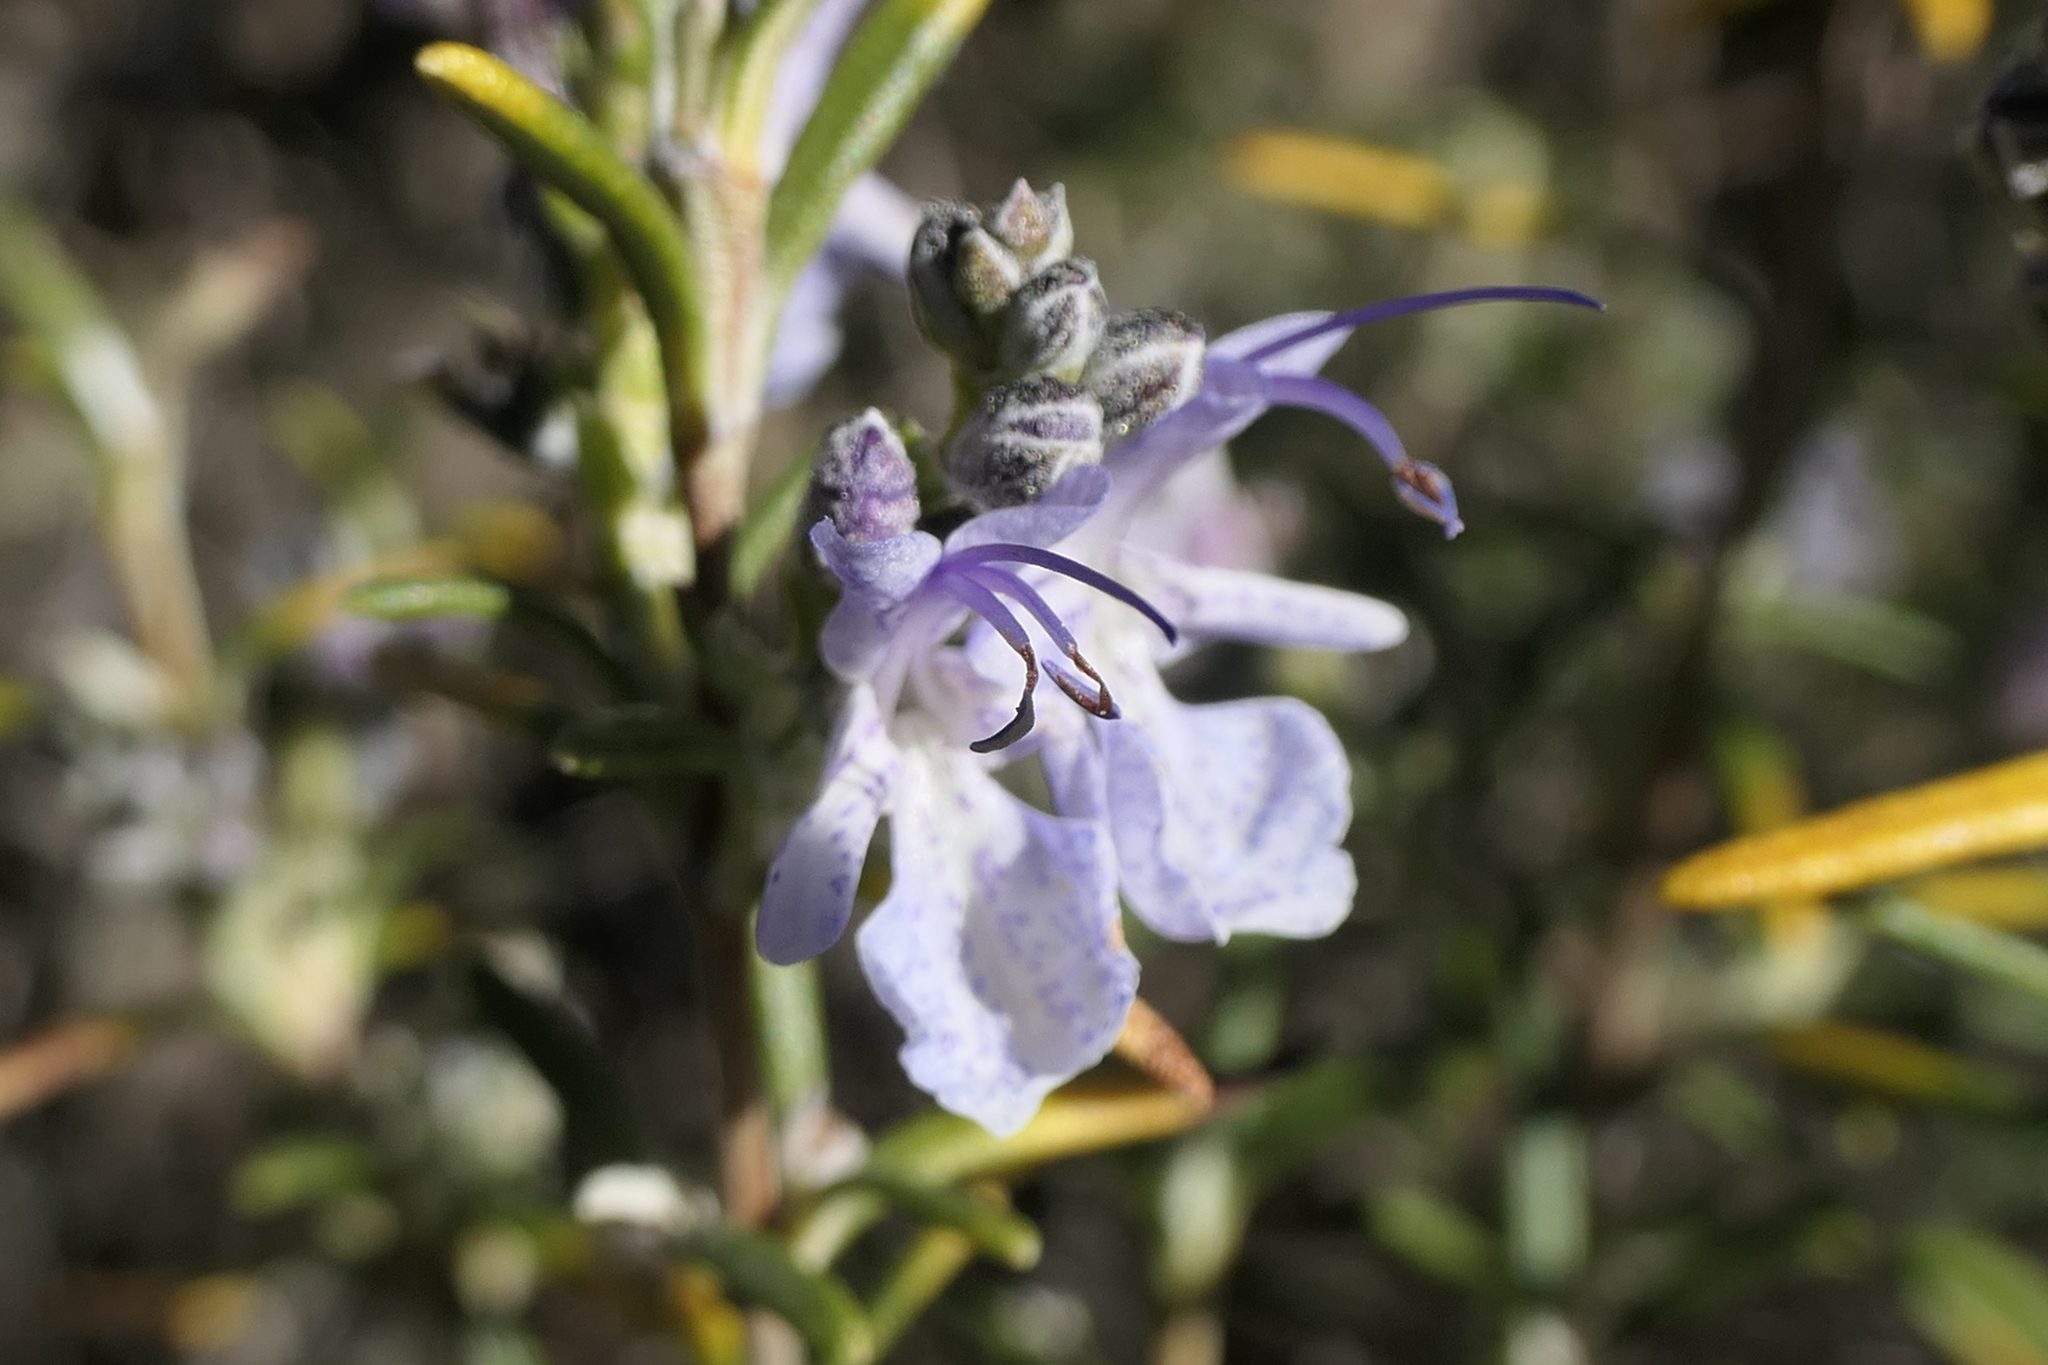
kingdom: Plantae
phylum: Tracheophyta
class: Magnoliopsida
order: Lamiales
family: Lamiaceae
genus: Salvia
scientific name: Salvia rosmarinus
